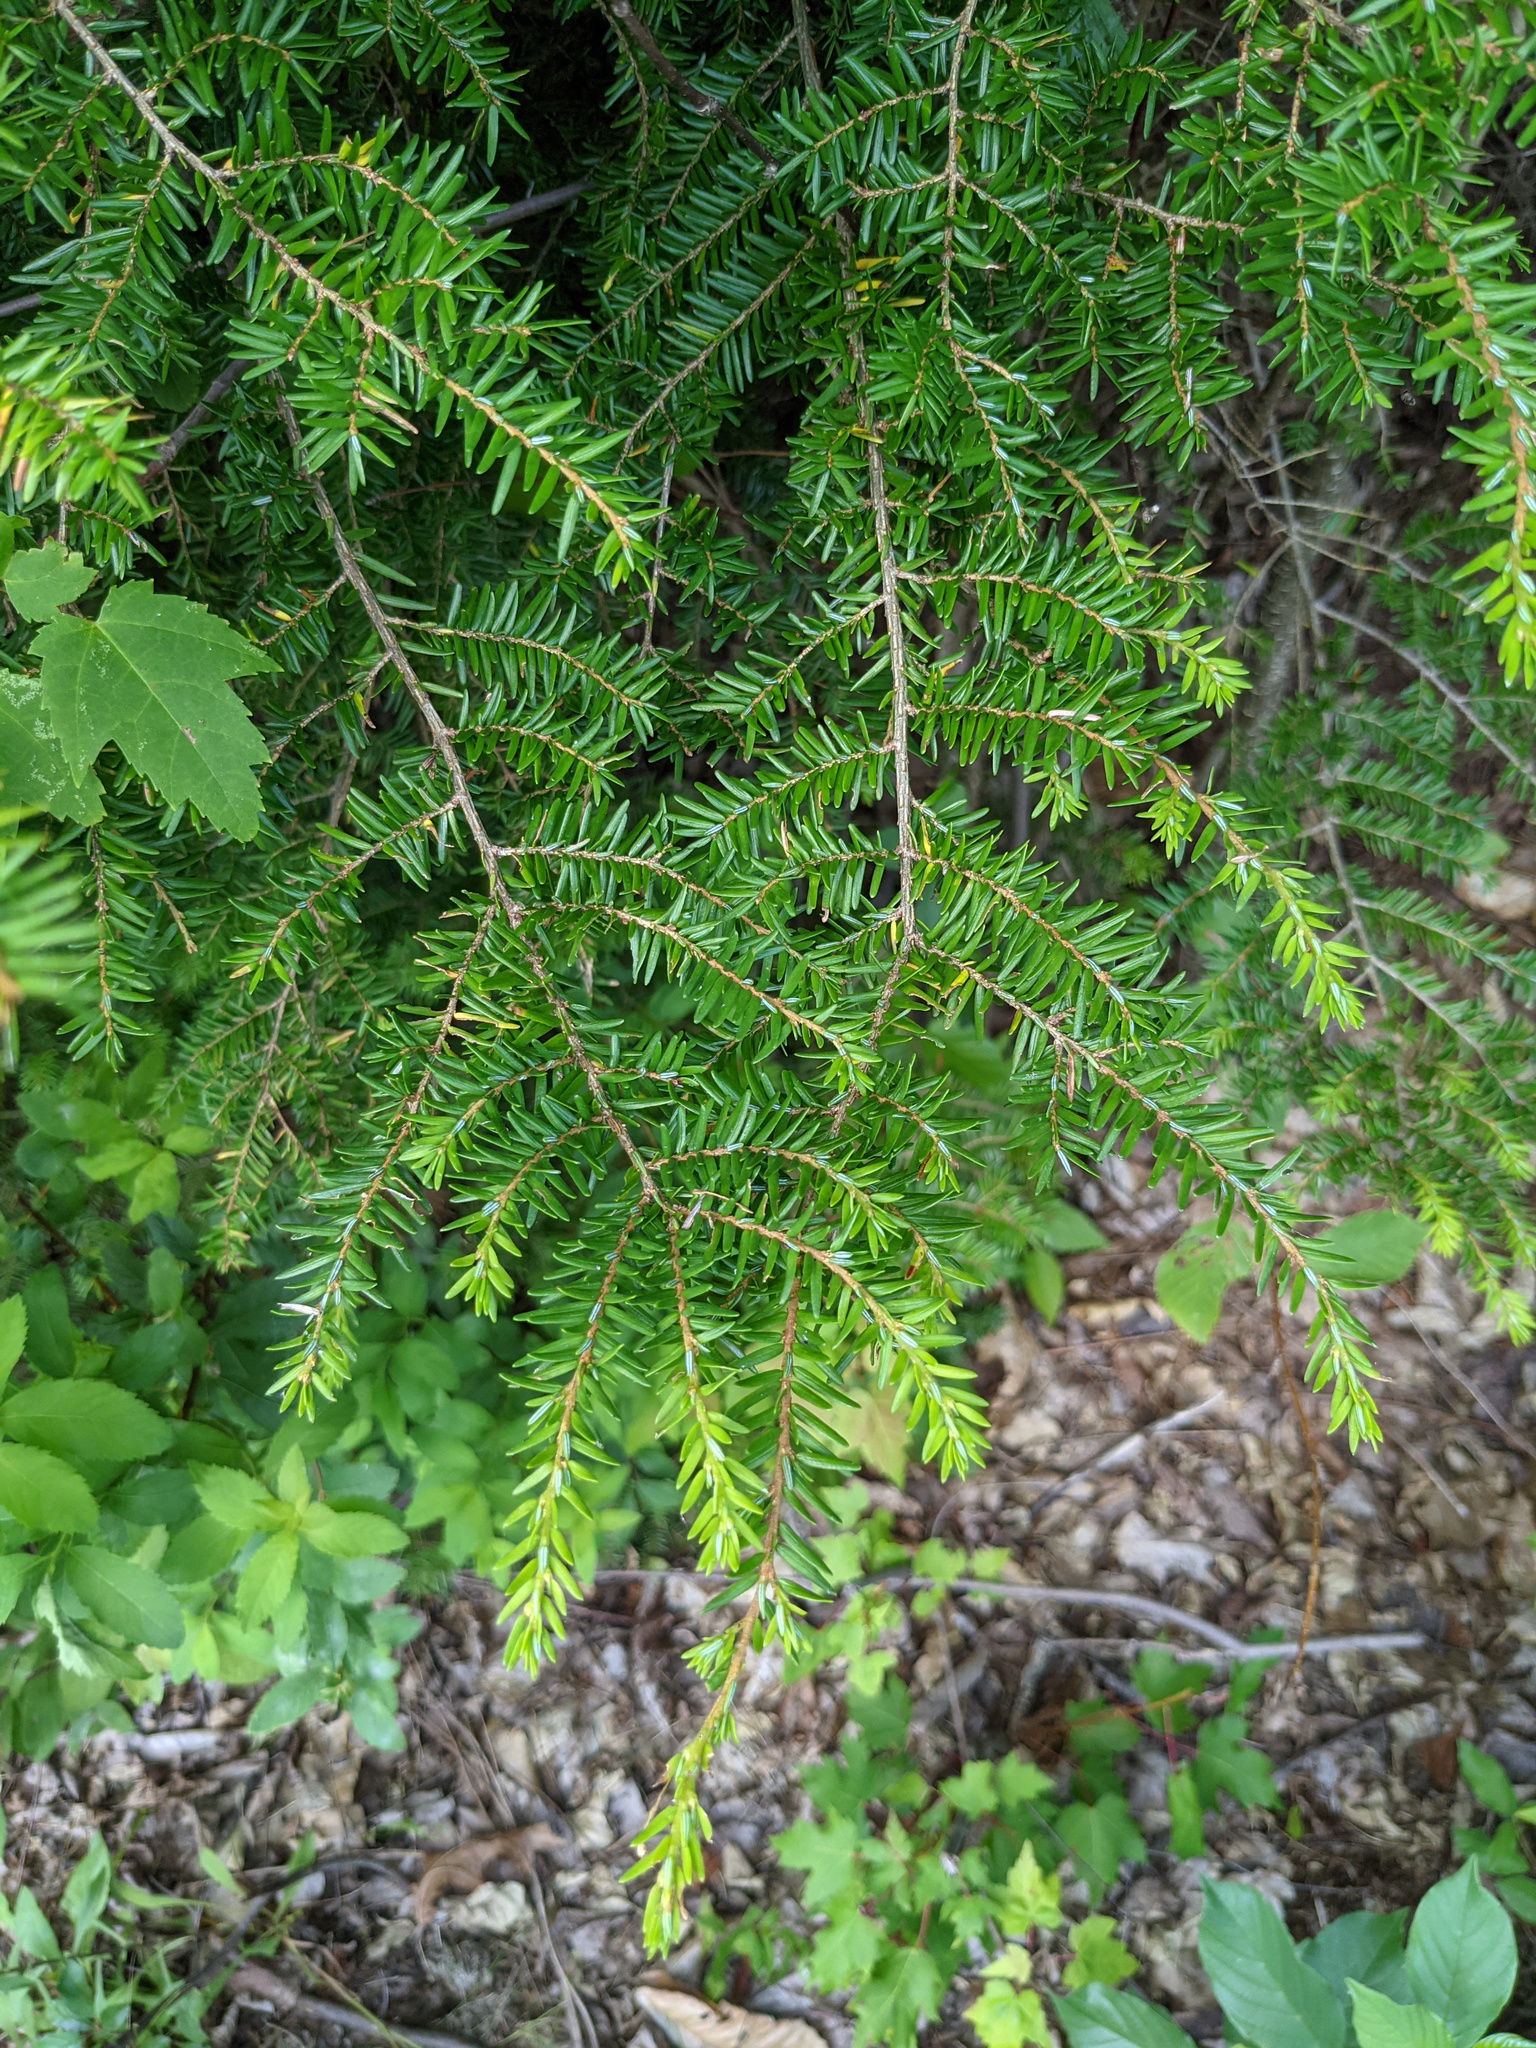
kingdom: Plantae
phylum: Tracheophyta
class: Pinopsida
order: Pinales
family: Pinaceae
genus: Tsuga
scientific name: Tsuga canadensis
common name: Eastern hemlock
